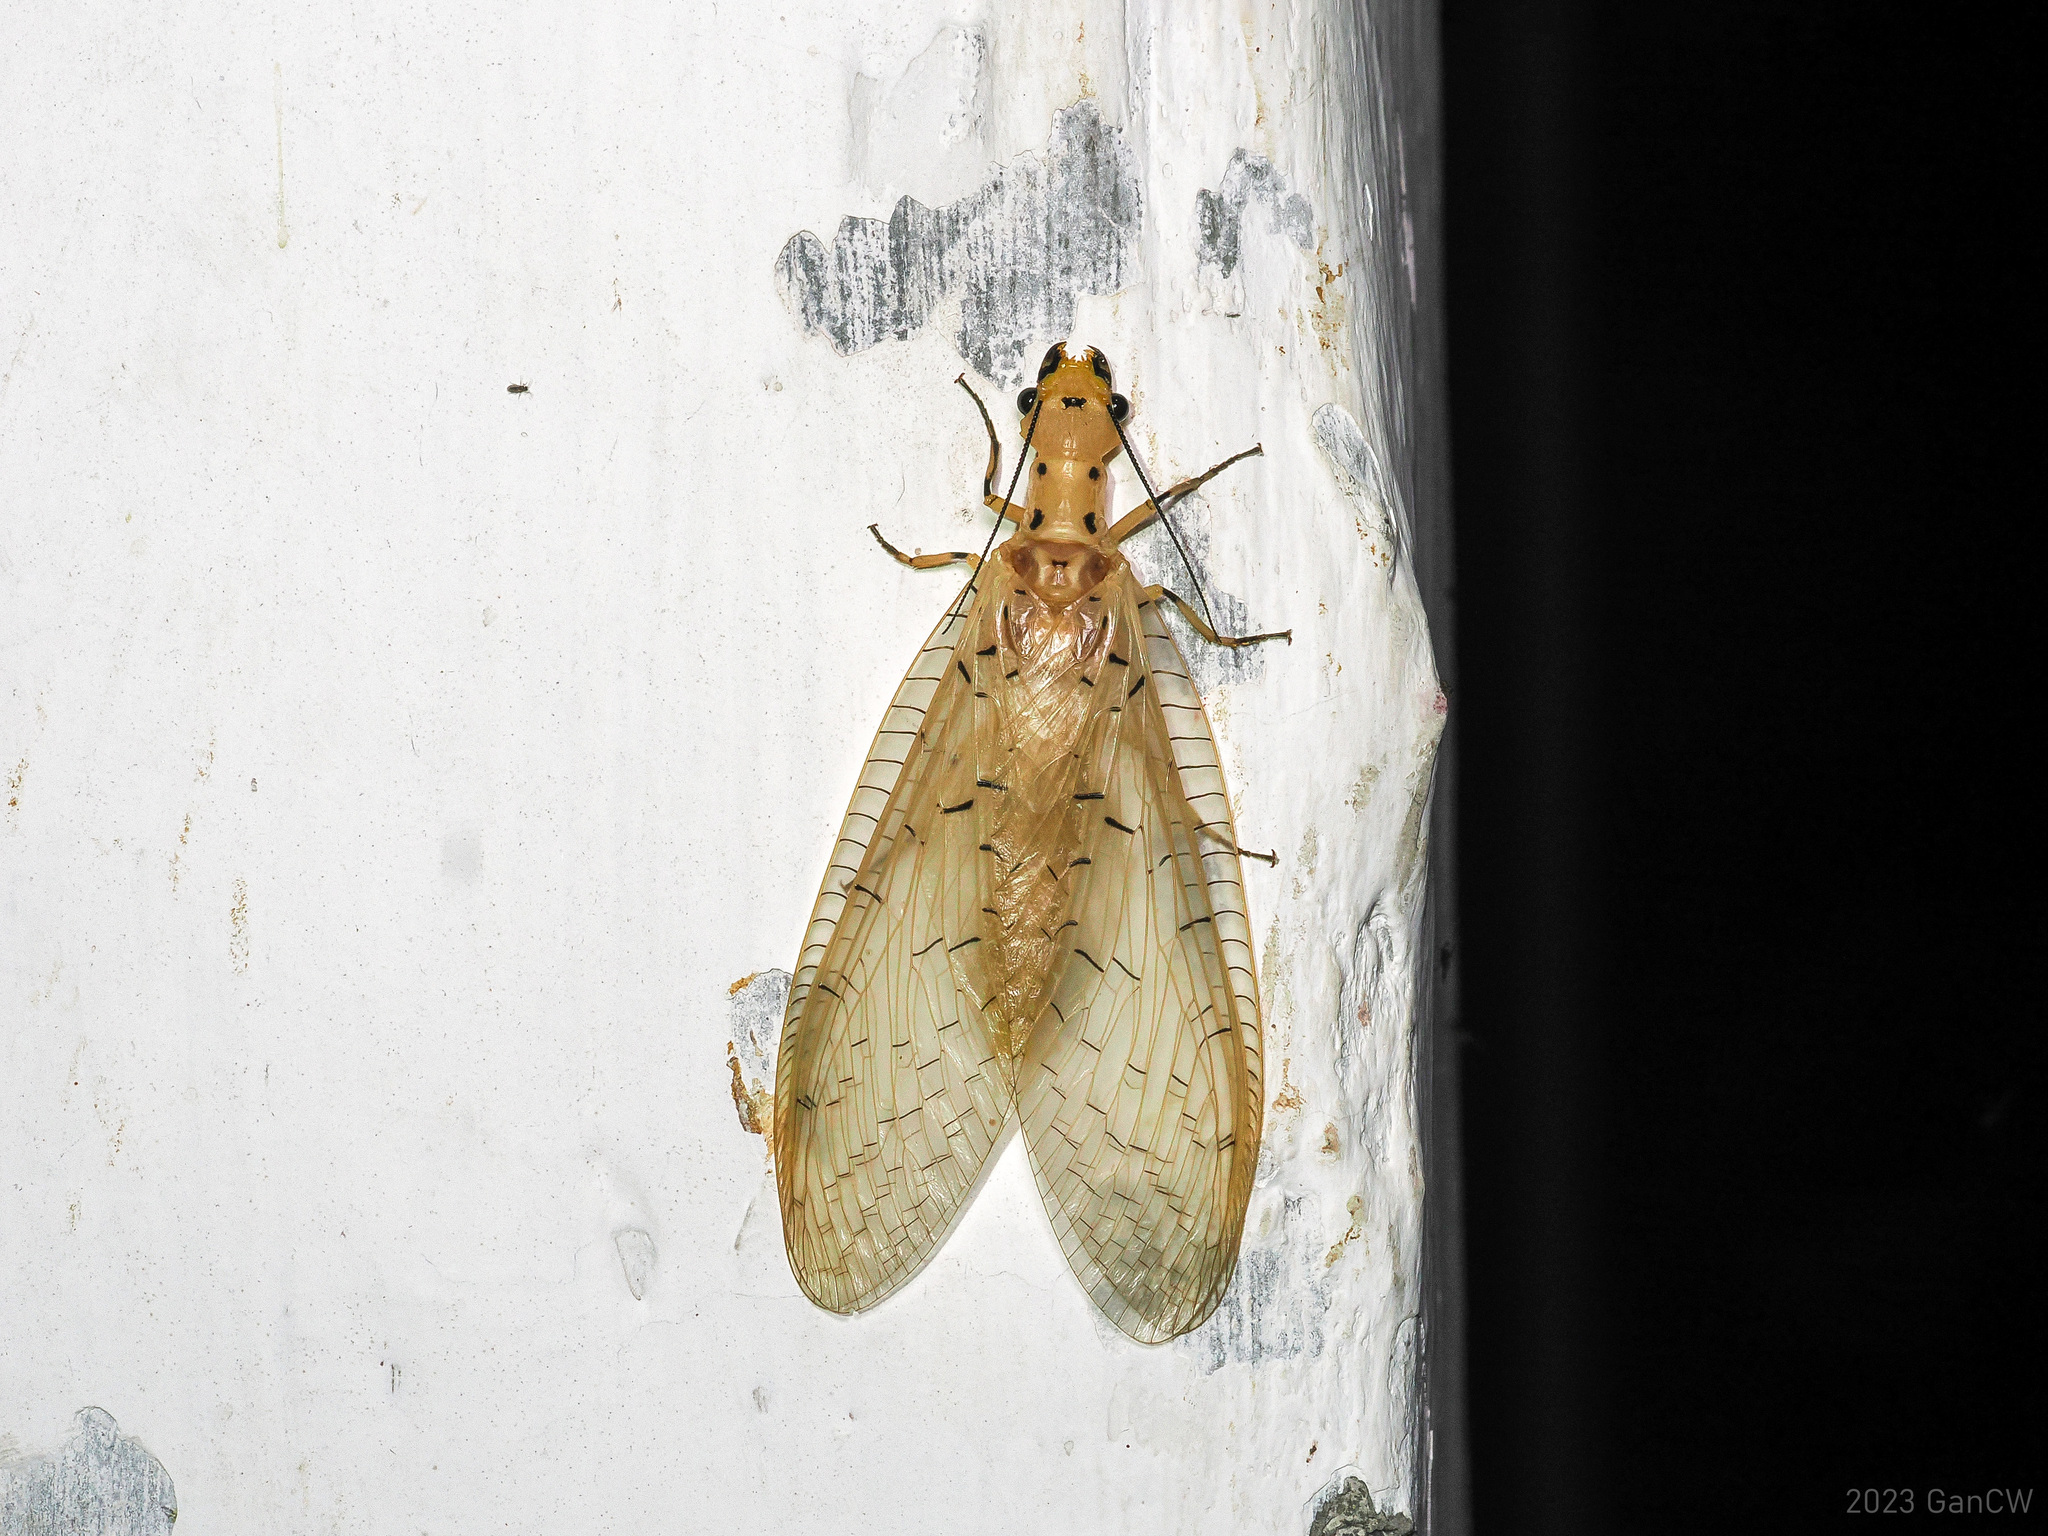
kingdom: Animalia
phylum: Arthropoda
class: Insecta
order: Megaloptera
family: Corydalidae
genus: Nevromus
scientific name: Nevromus testaceus
